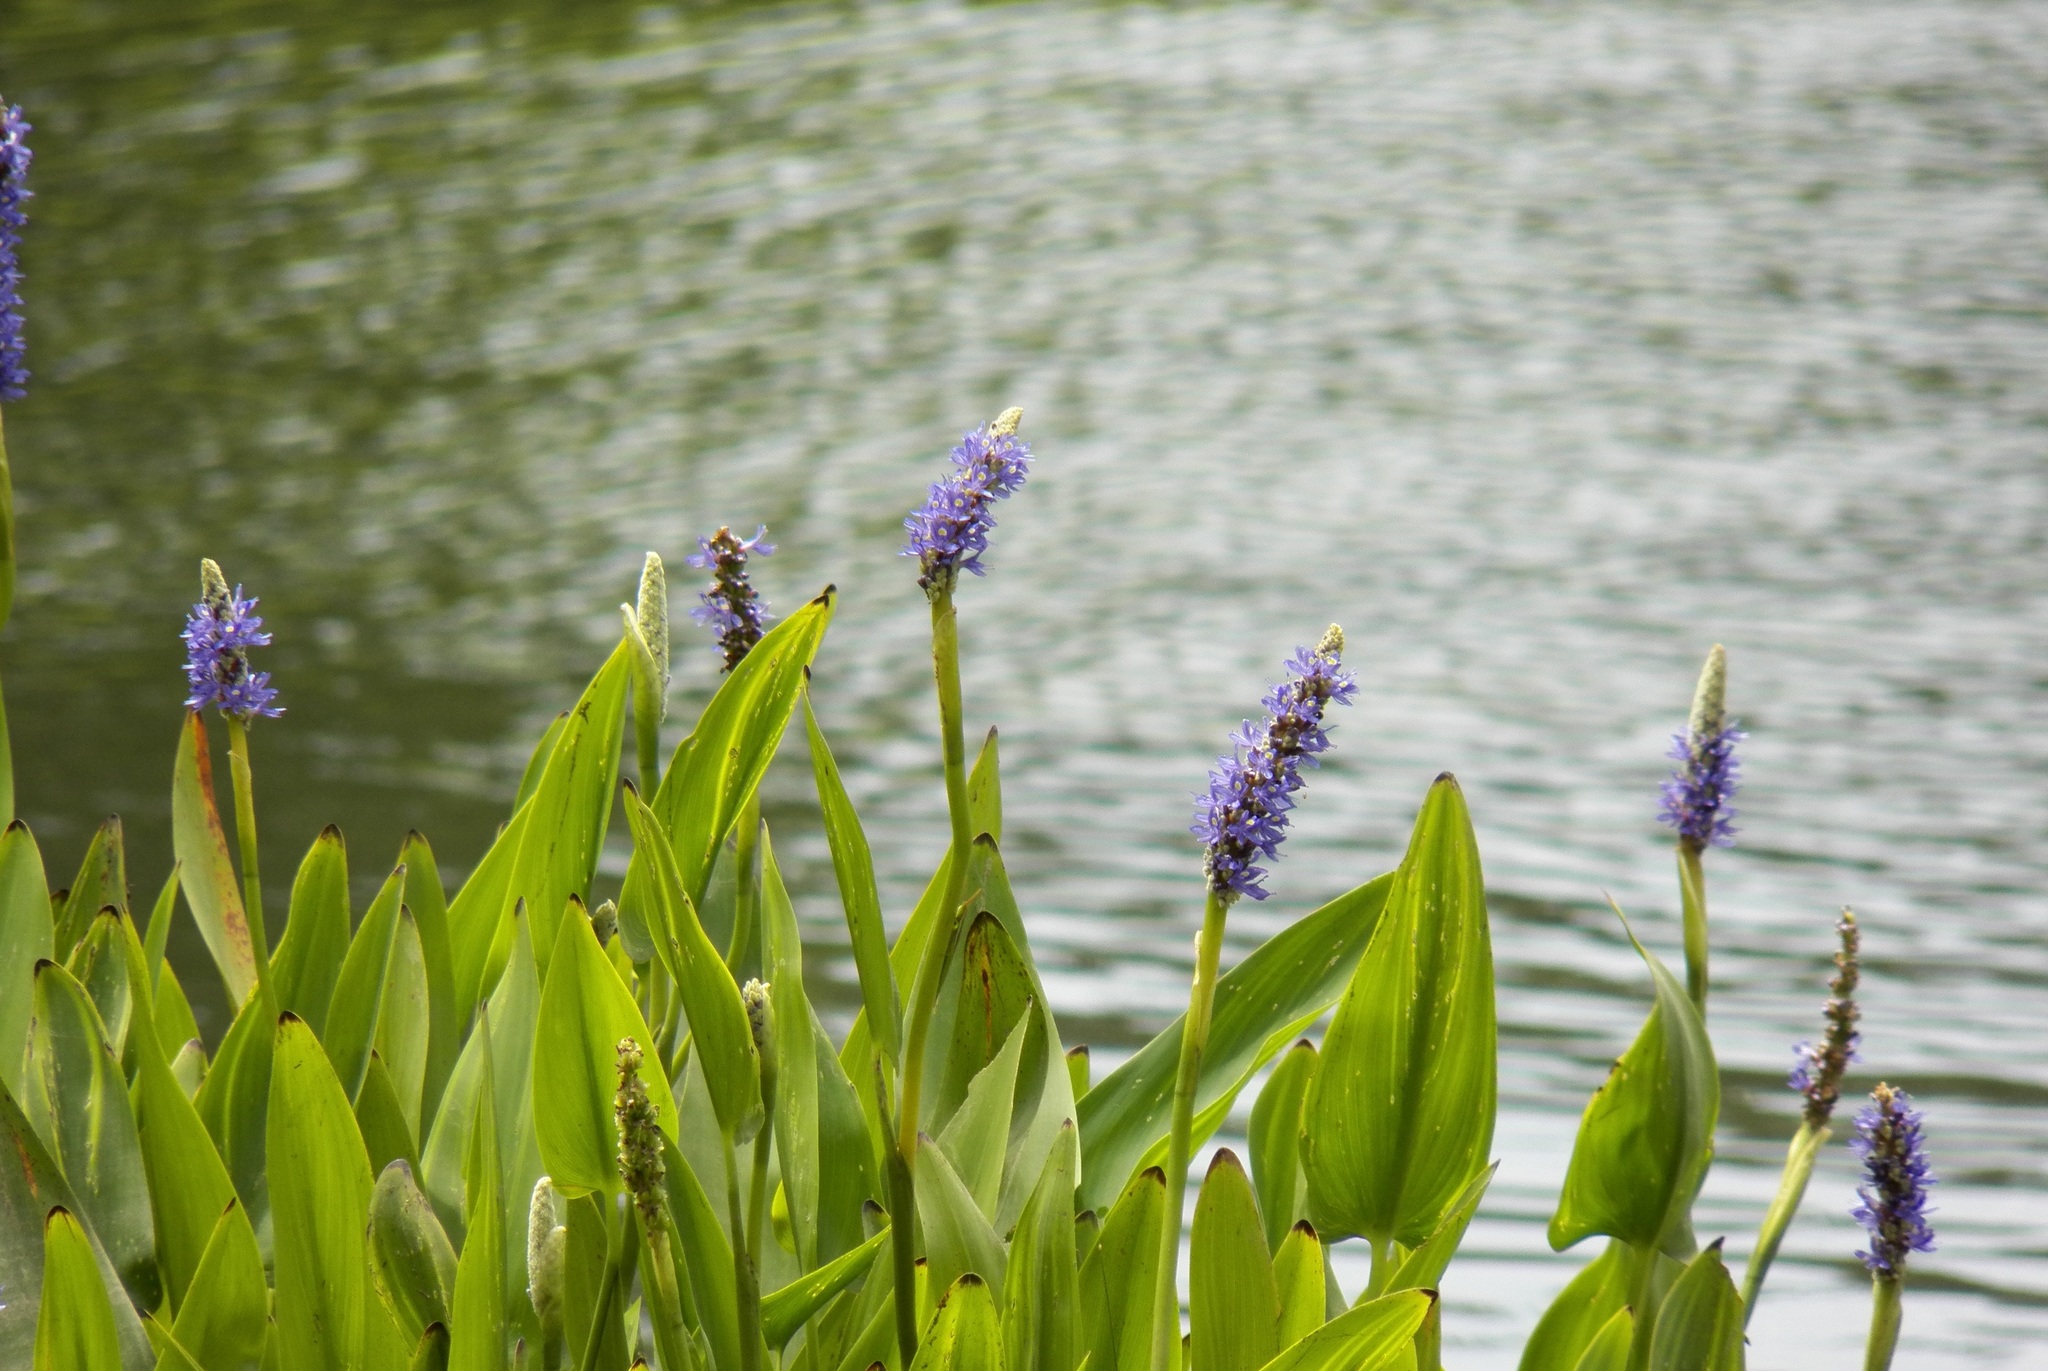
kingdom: Plantae
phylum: Tracheophyta
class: Liliopsida
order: Commelinales
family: Pontederiaceae
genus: Pontederia
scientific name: Pontederia cordata
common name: Pickerelweed
